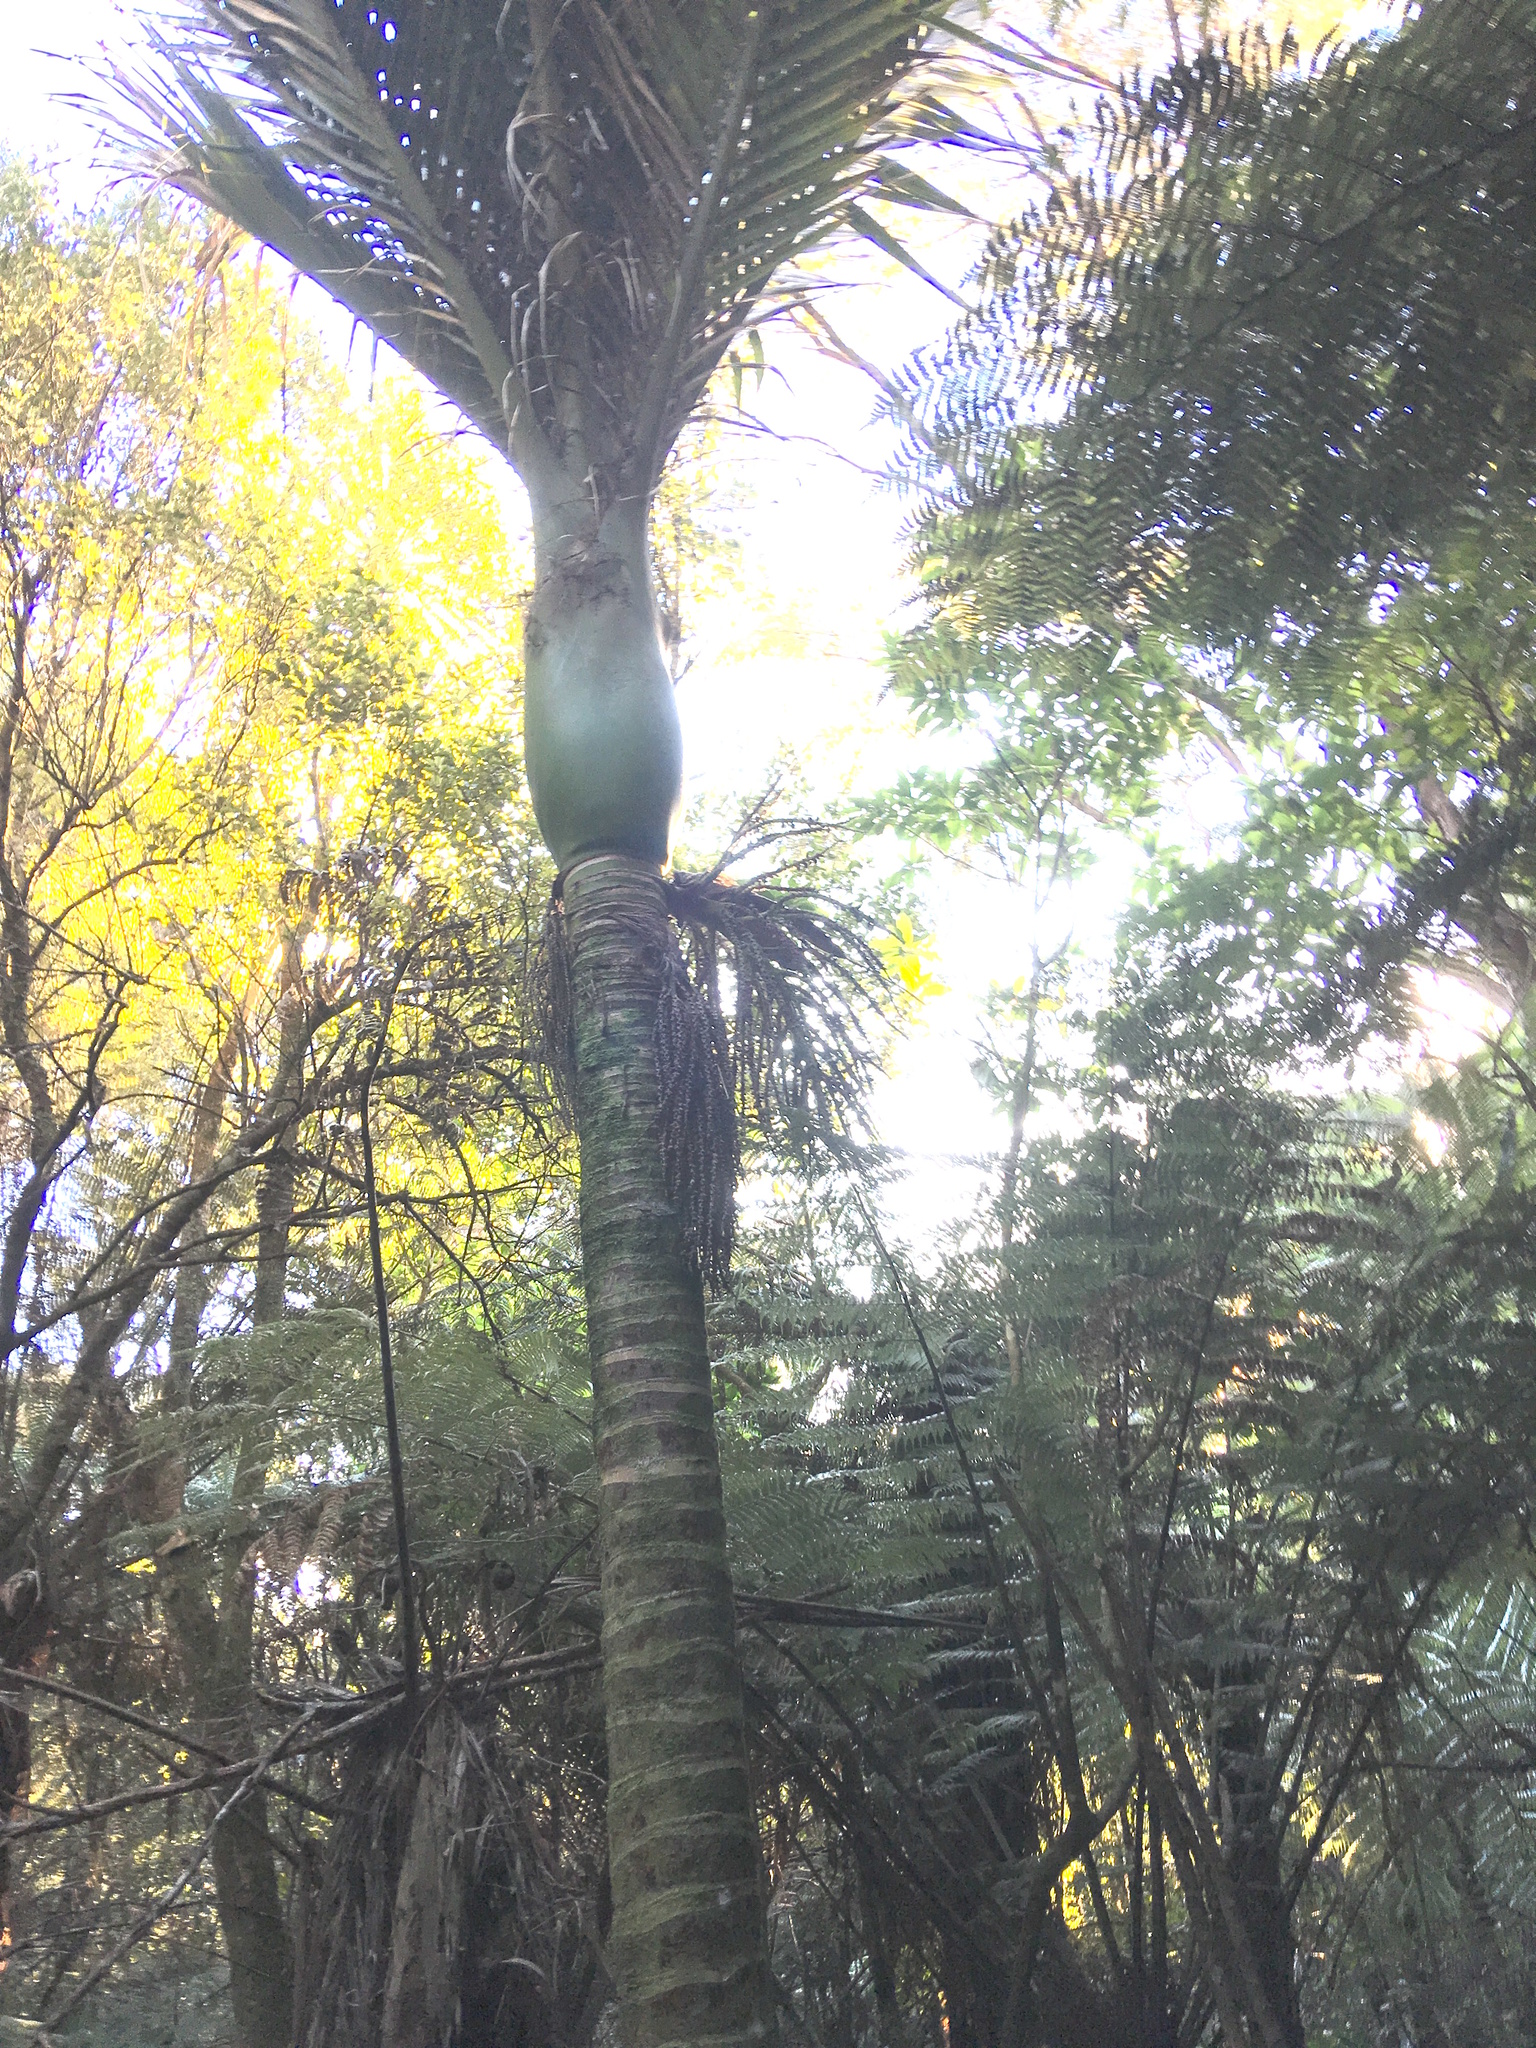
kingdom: Plantae
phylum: Tracheophyta
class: Liliopsida
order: Arecales
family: Arecaceae
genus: Rhopalostylis
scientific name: Rhopalostylis sapida
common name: Feather-duster palm
